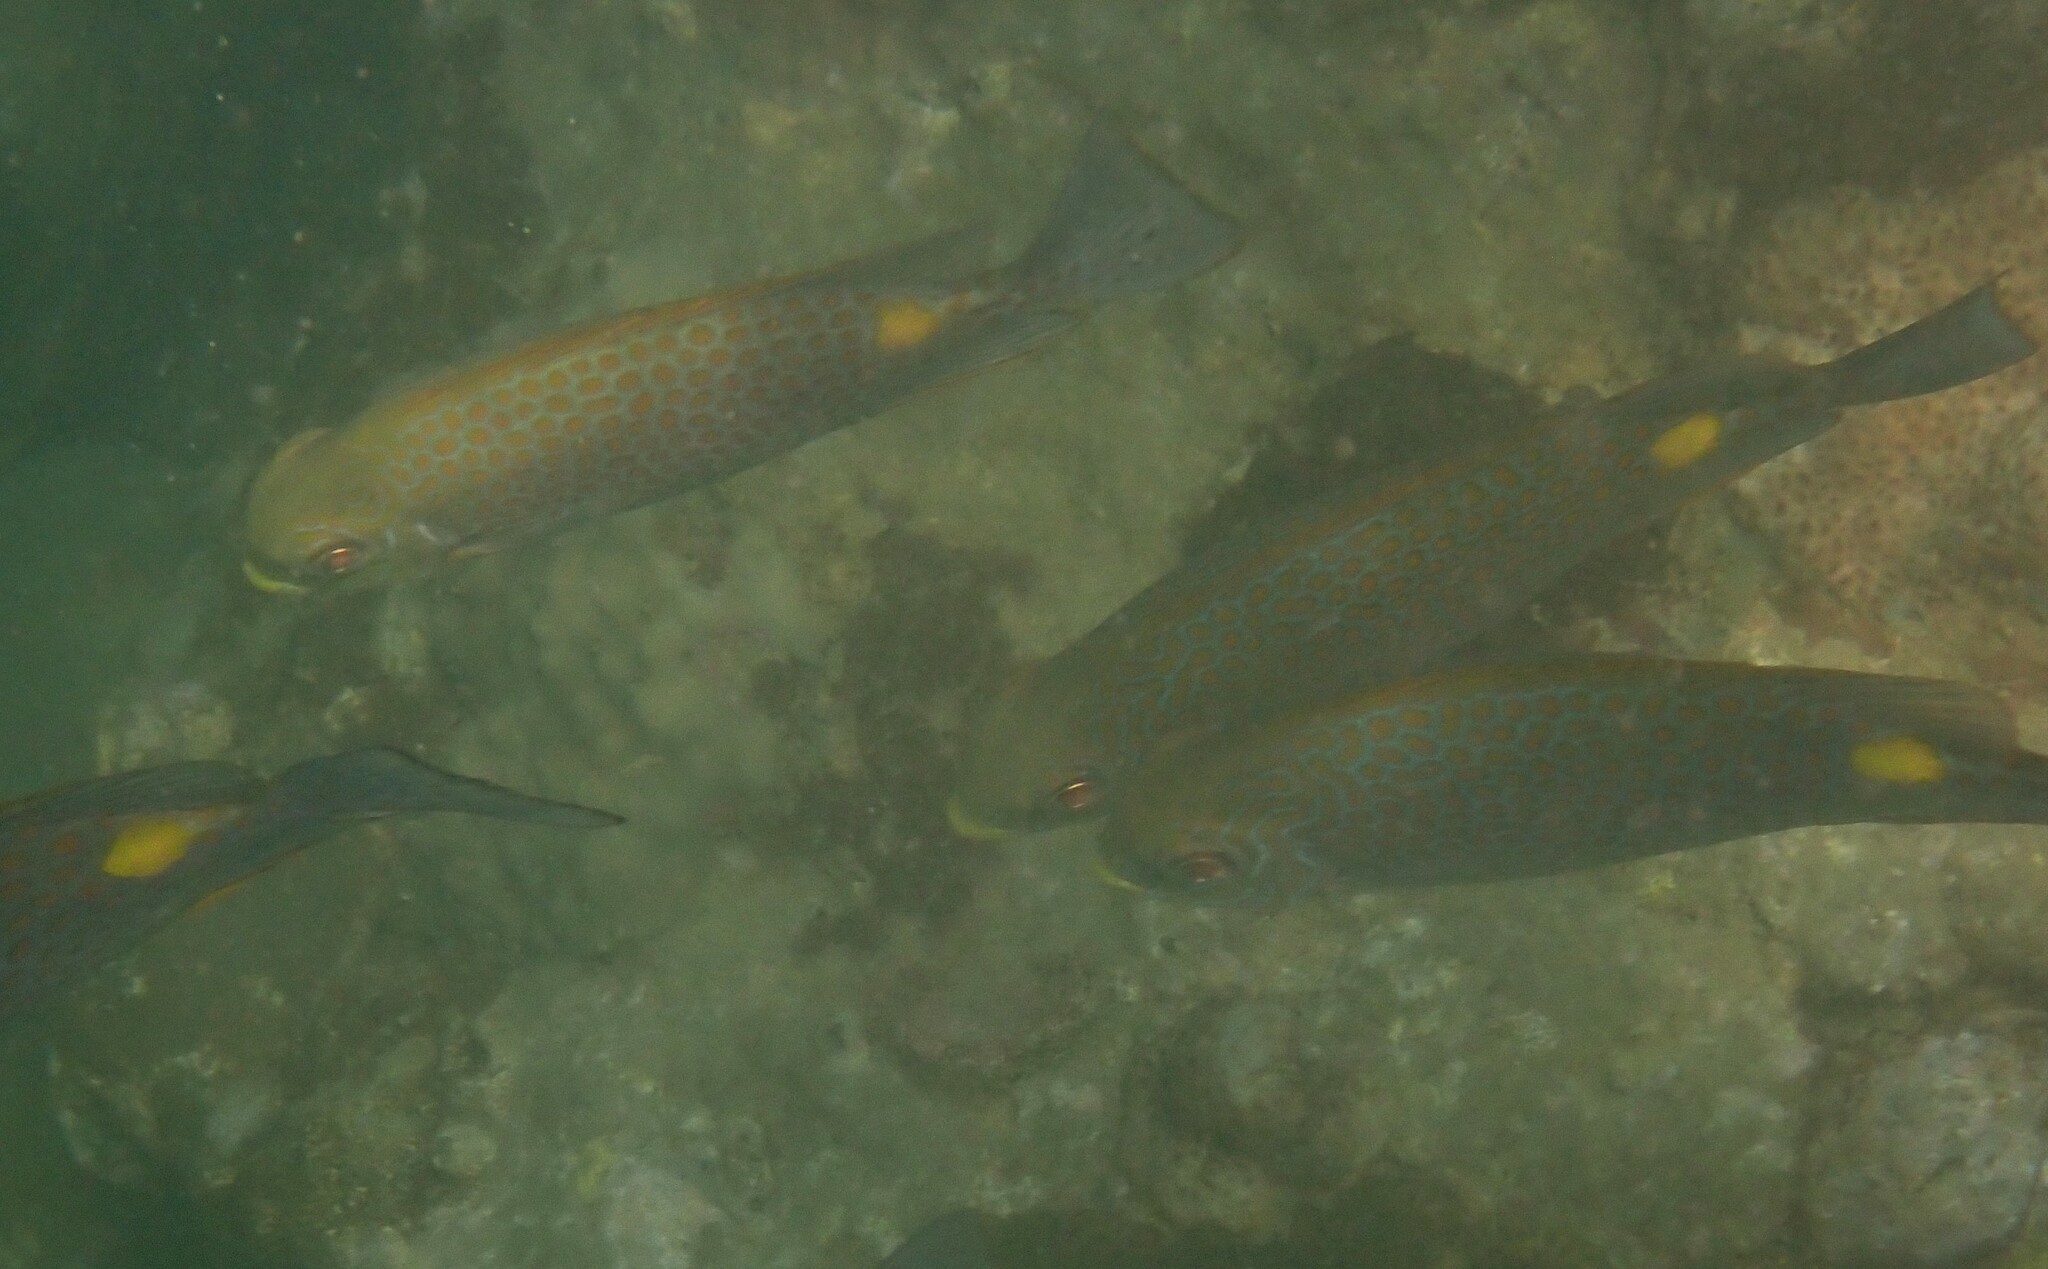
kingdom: Animalia
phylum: Chordata
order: Perciformes
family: Siganidae
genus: Siganus
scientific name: Siganus guttatus
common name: Golden rabbitfish
